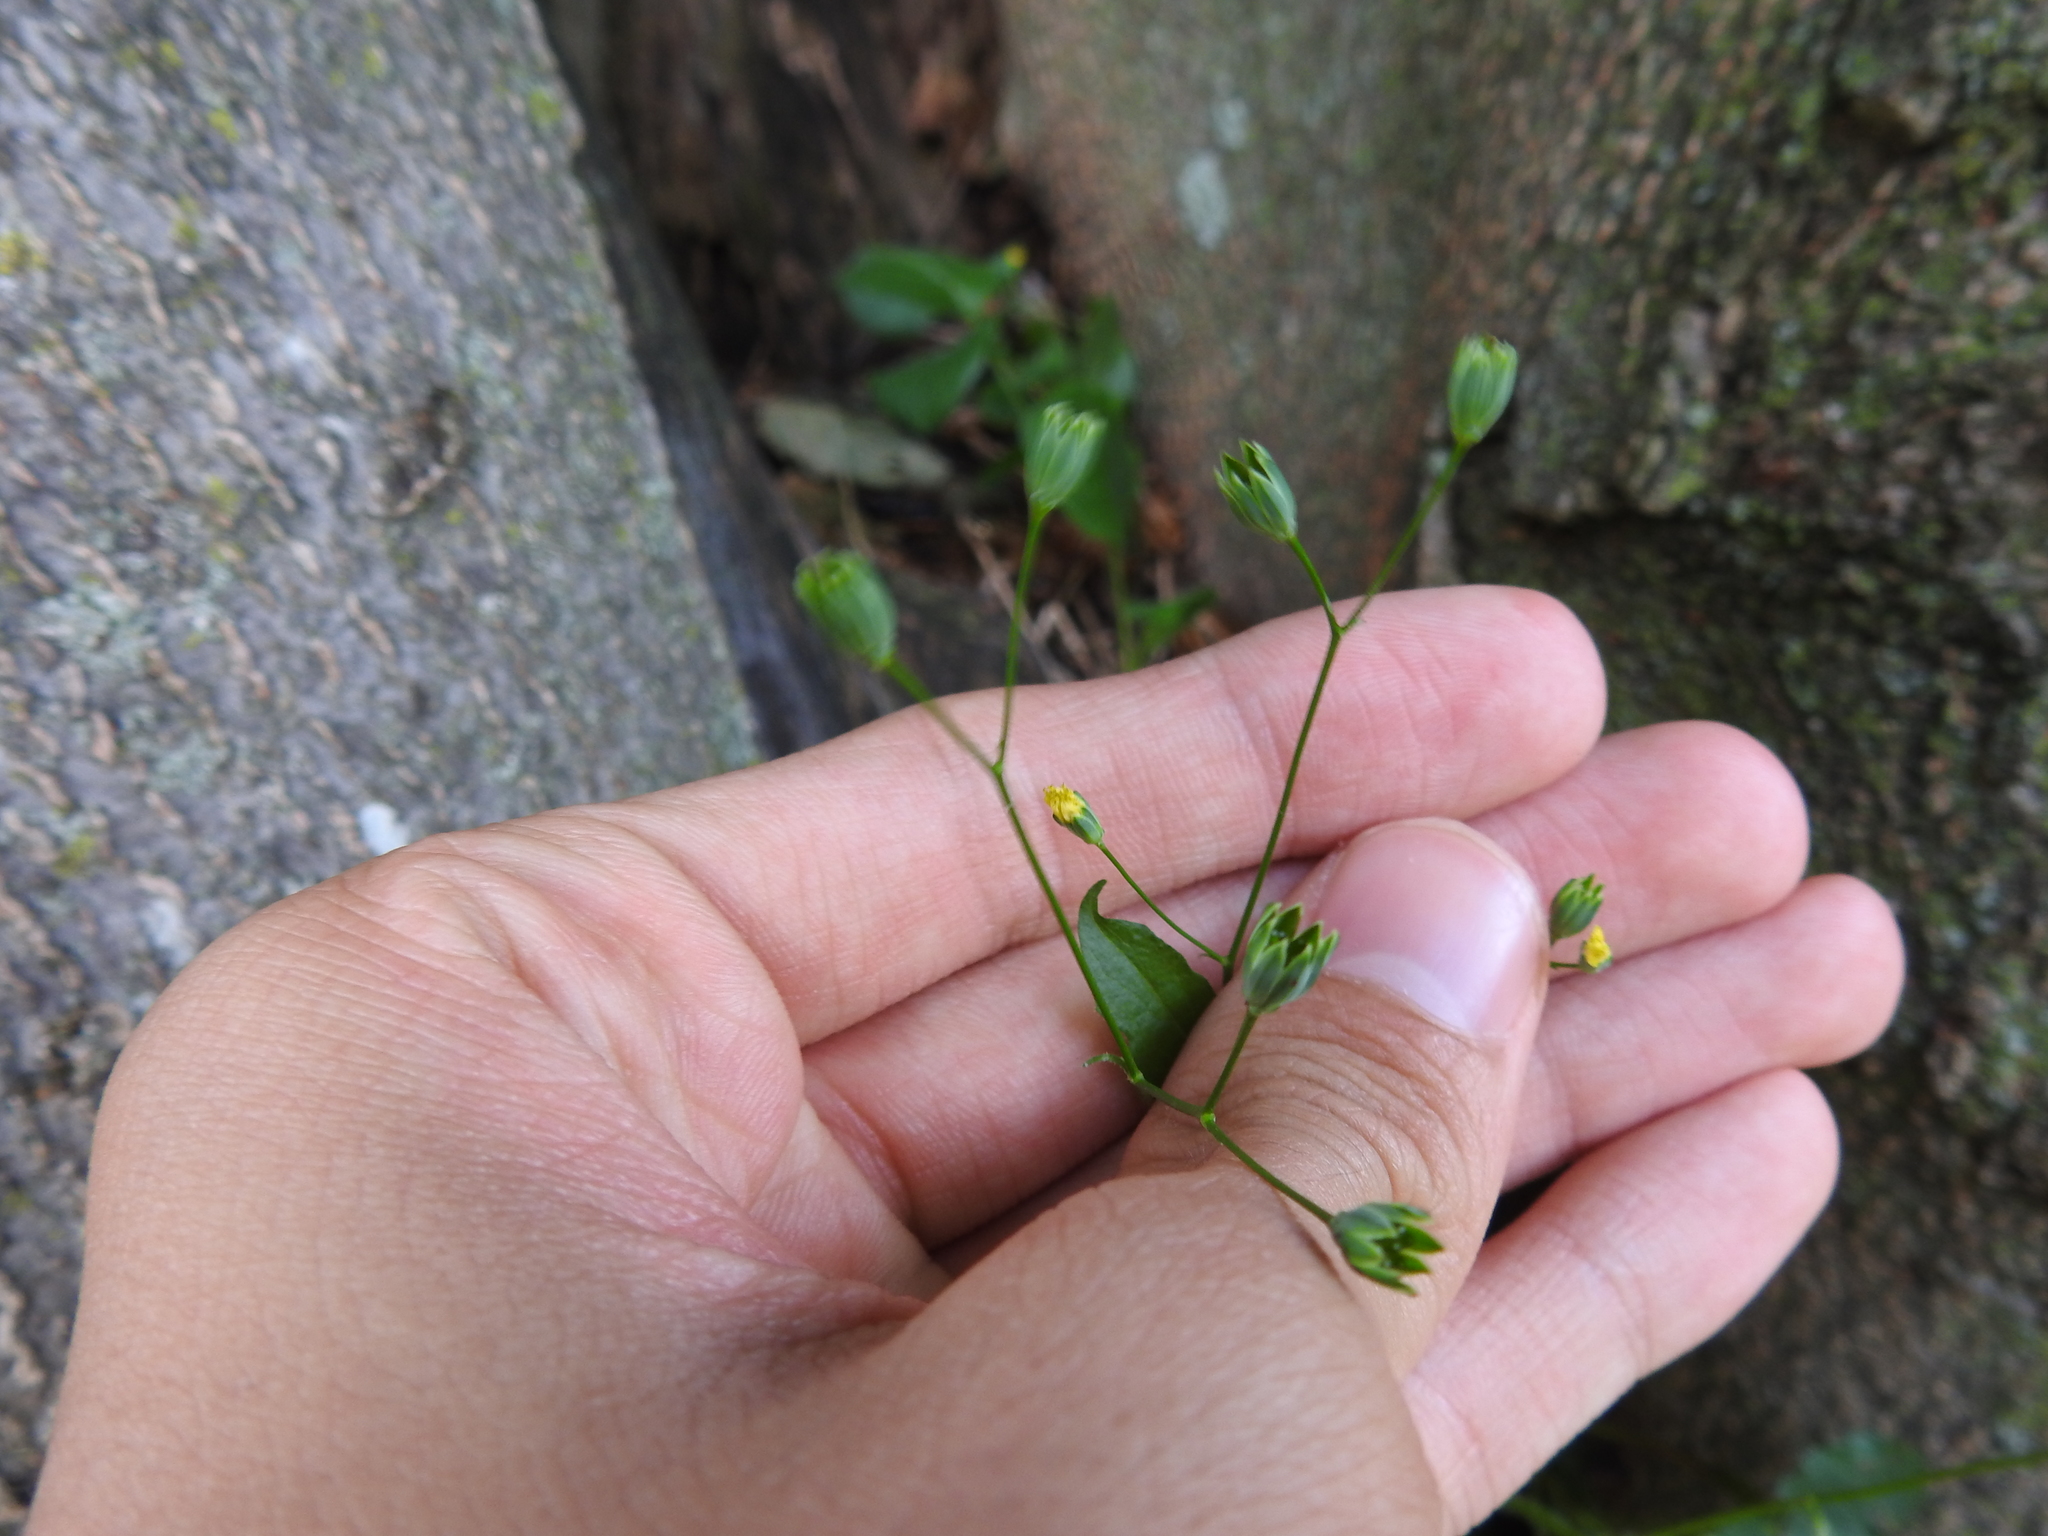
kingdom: Plantae
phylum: Tracheophyta
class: Magnoliopsida
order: Asterales
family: Asteraceae
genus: Lapsana
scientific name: Lapsana communis
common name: Nipplewort
